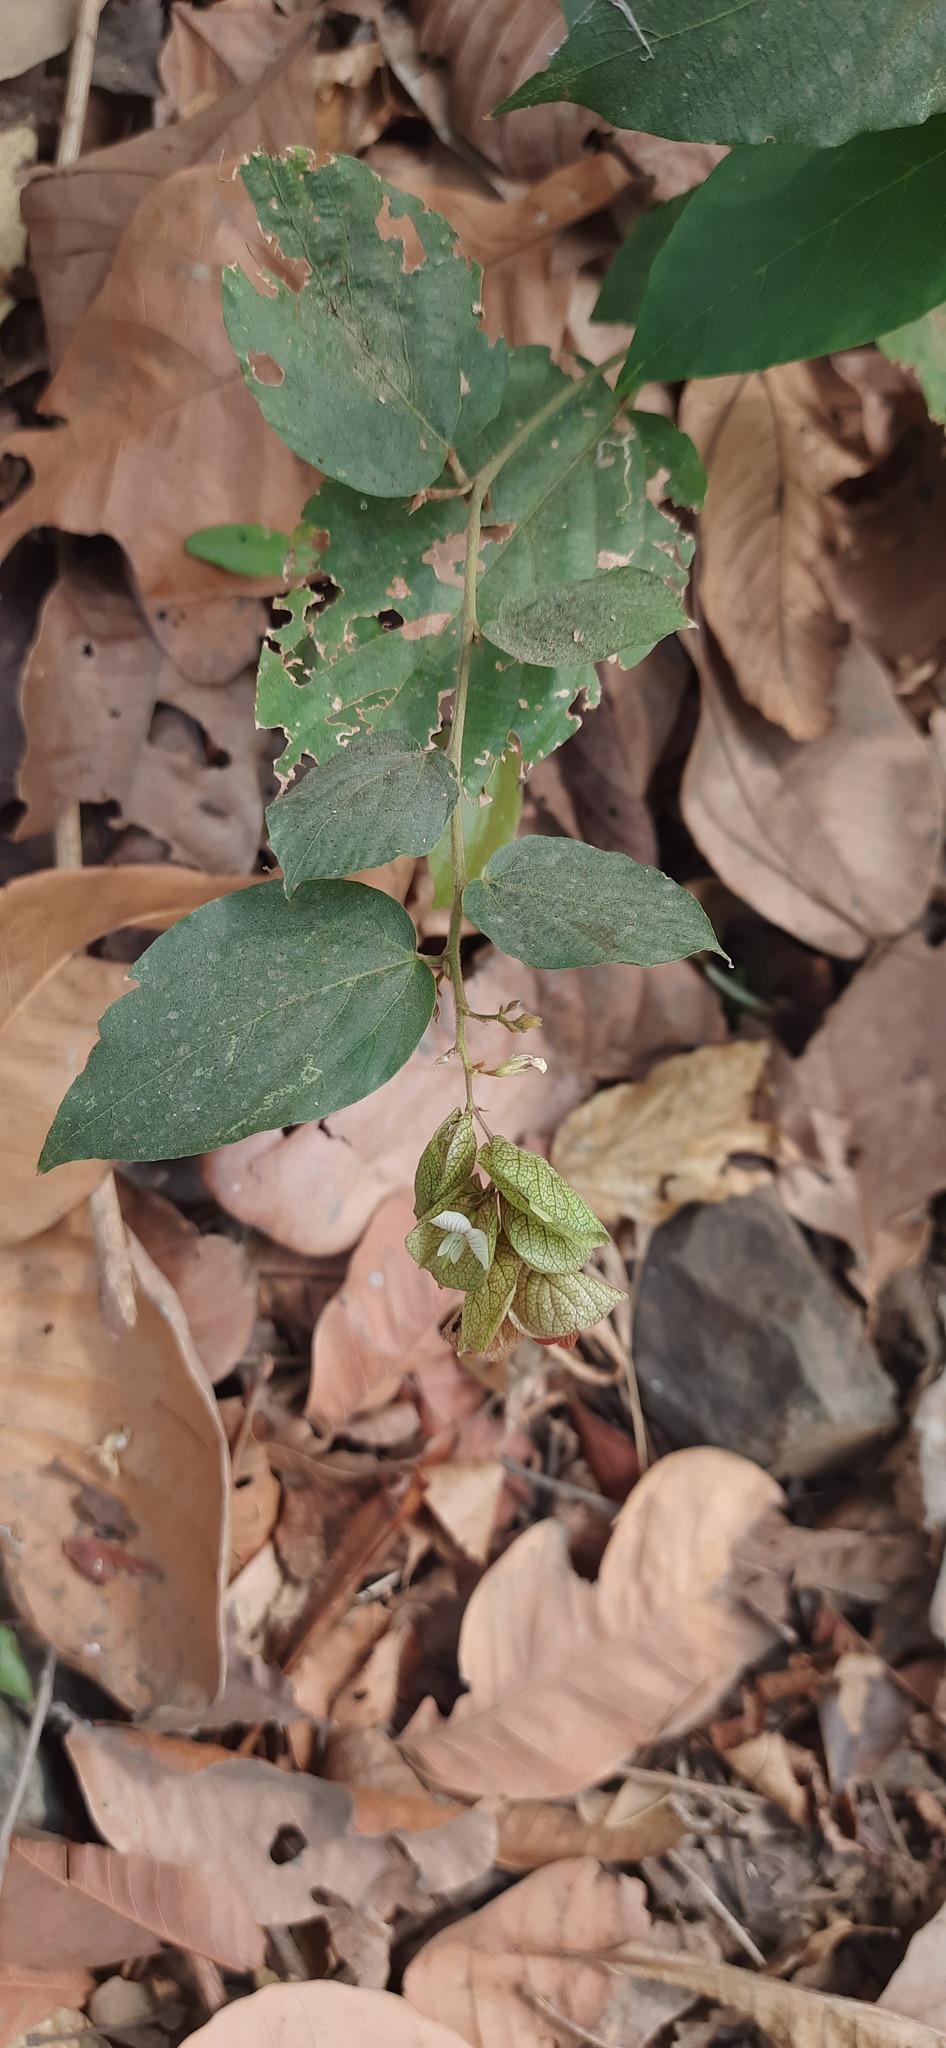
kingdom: Plantae
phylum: Tracheophyta
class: Magnoliopsida
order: Fabales
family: Fabaceae
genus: Flemingia
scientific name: Flemingia strobilifera
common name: Wild hops
